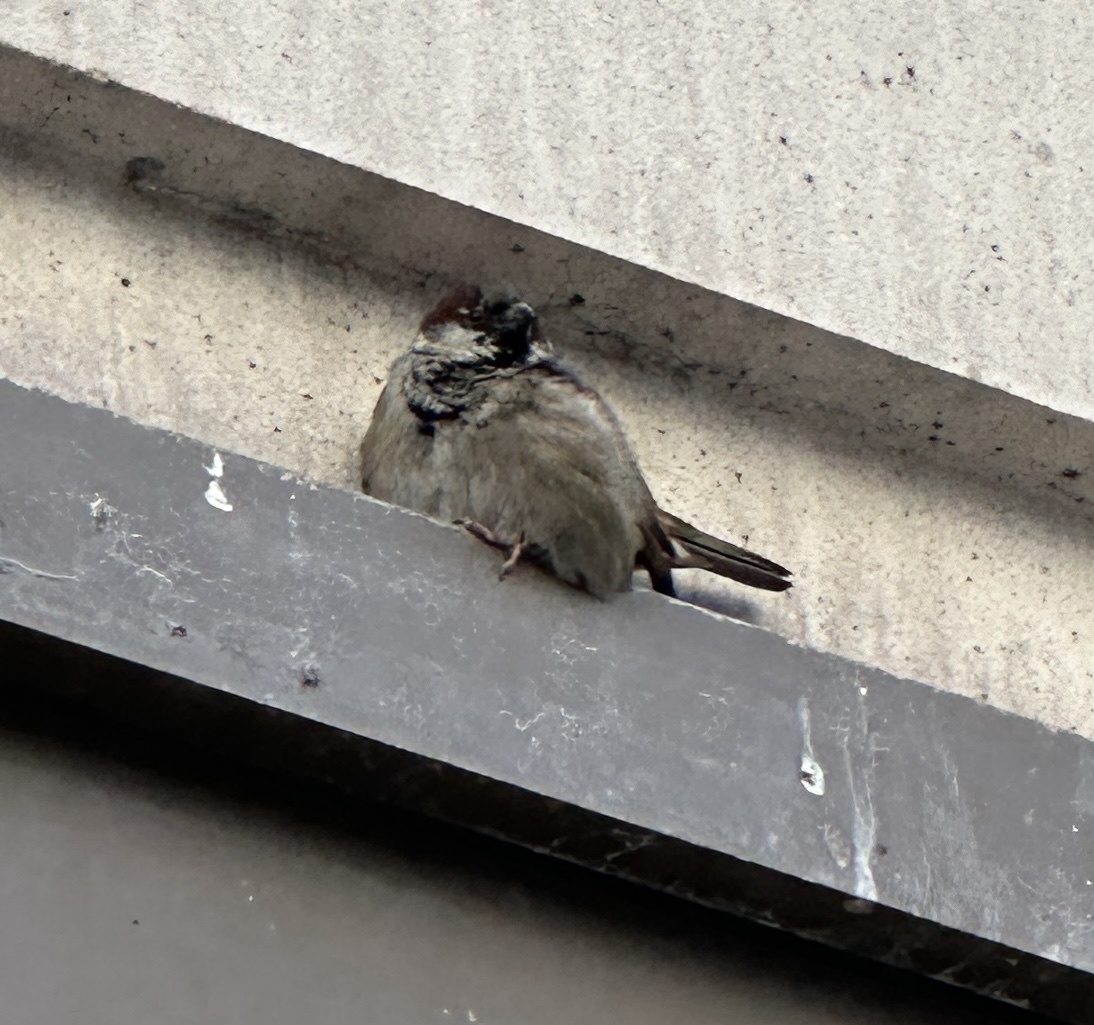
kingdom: Animalia
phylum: Chordata
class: Aves
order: Passeriformes
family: Passeridae
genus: Passer
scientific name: Passer domesticus
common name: House sparrow
